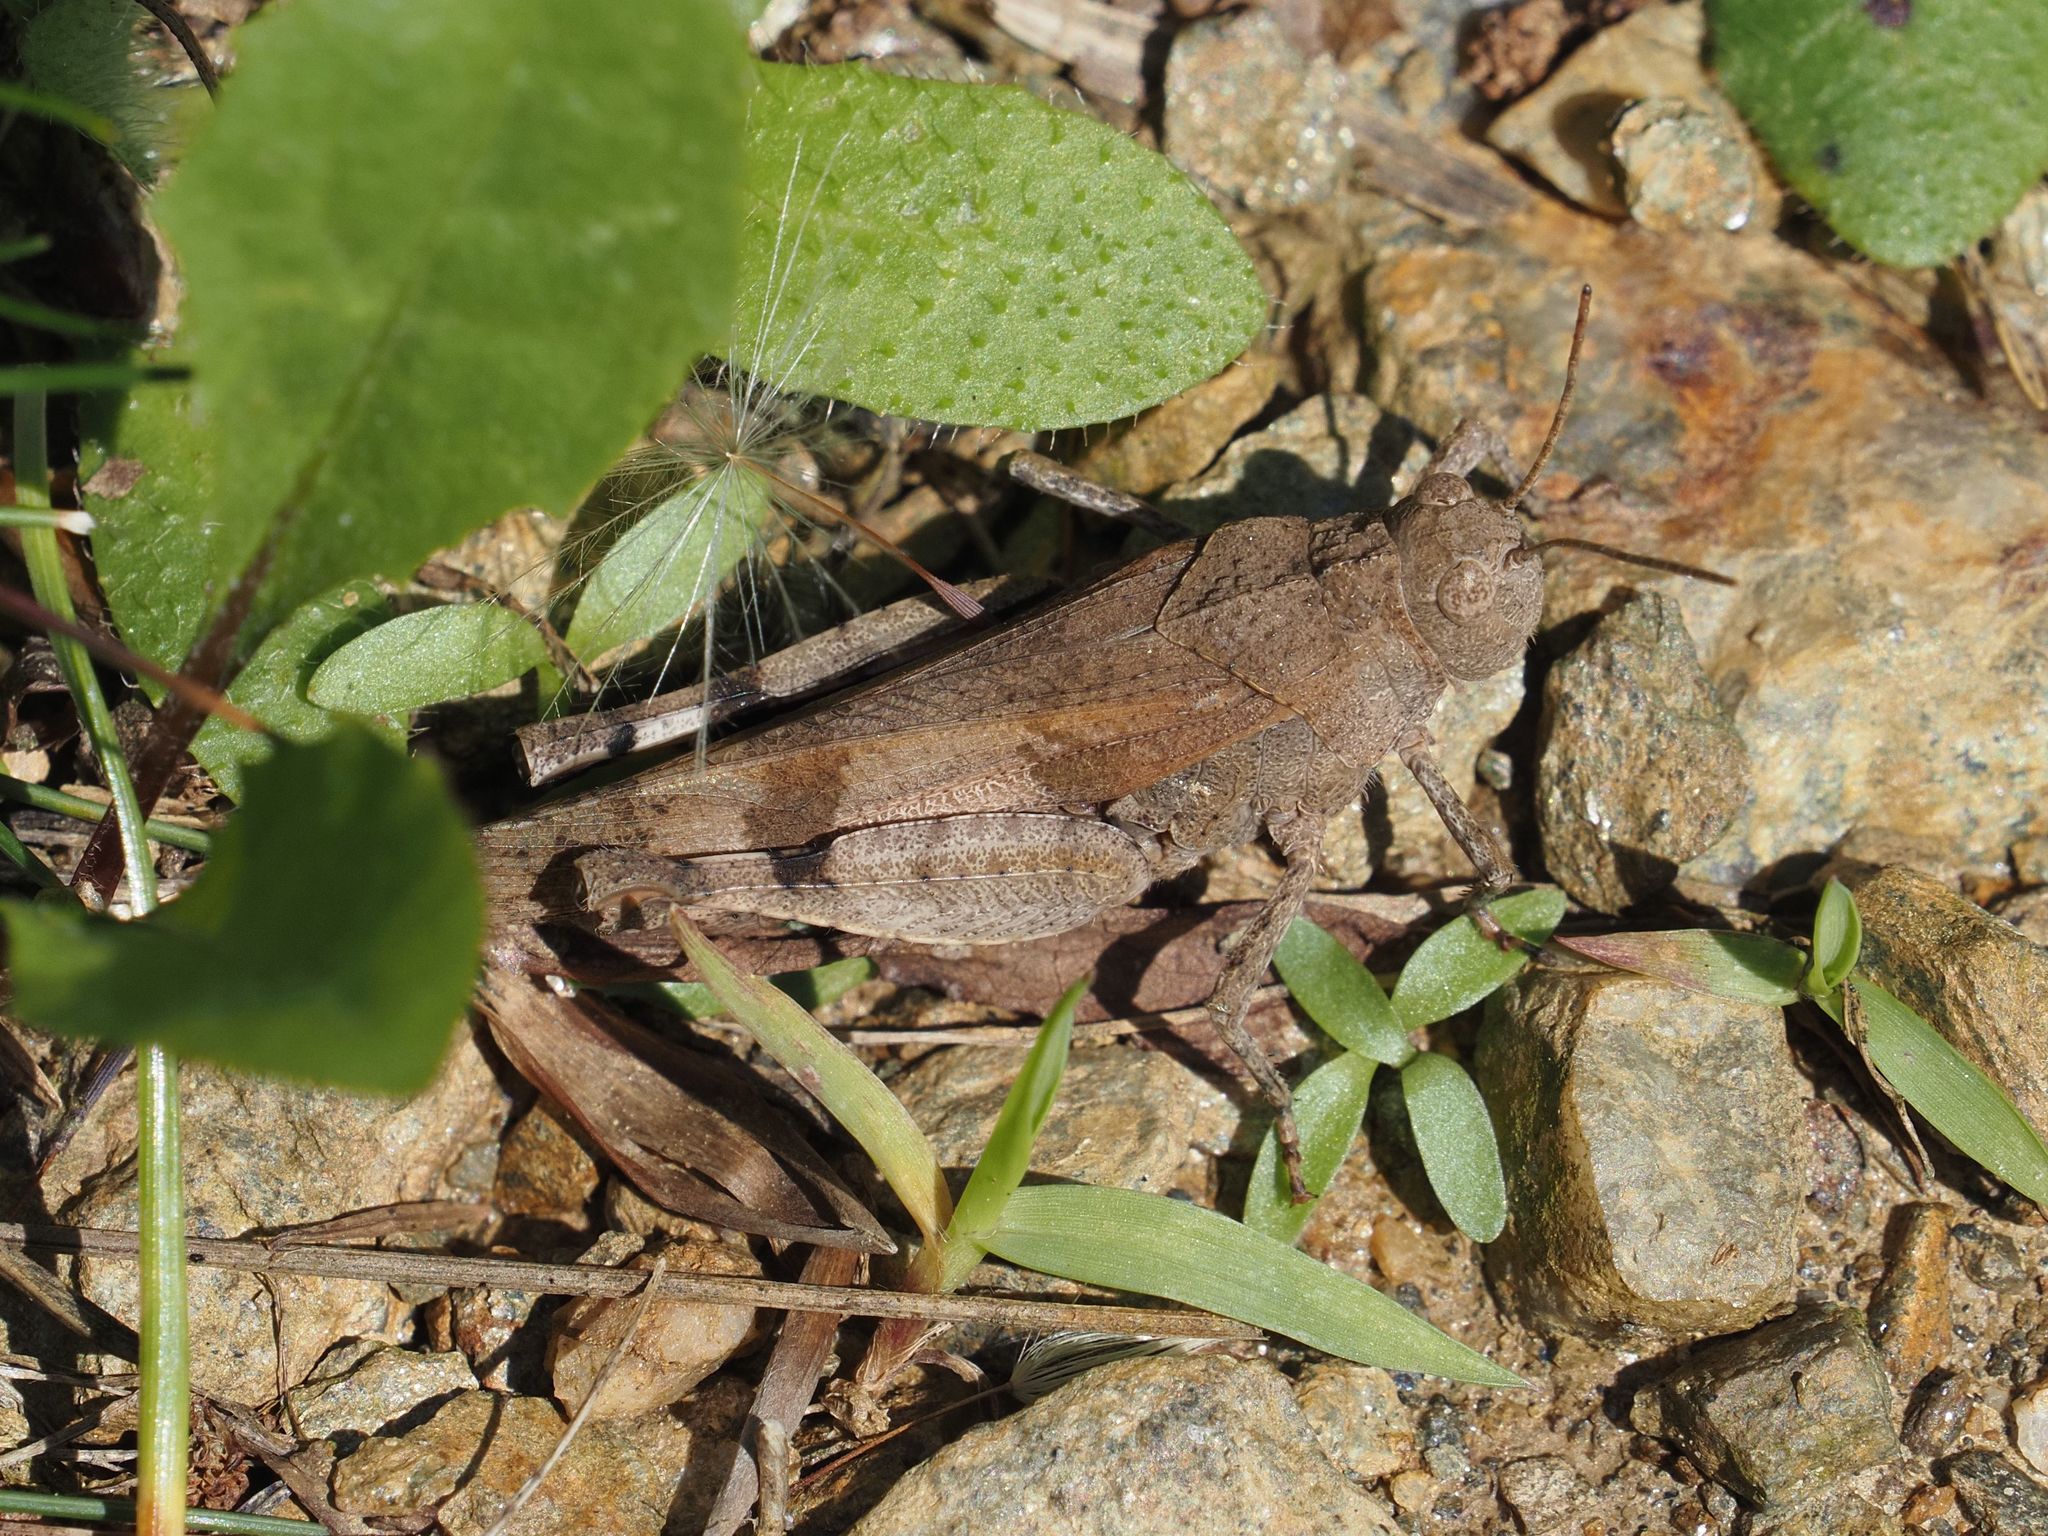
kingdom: Animalia
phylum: Arthropoda
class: Insecta
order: Orthoptera
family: Acrididae
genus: Oedipoda
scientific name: Oedipoda caerulescens
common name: Blue-winged grasshopper
